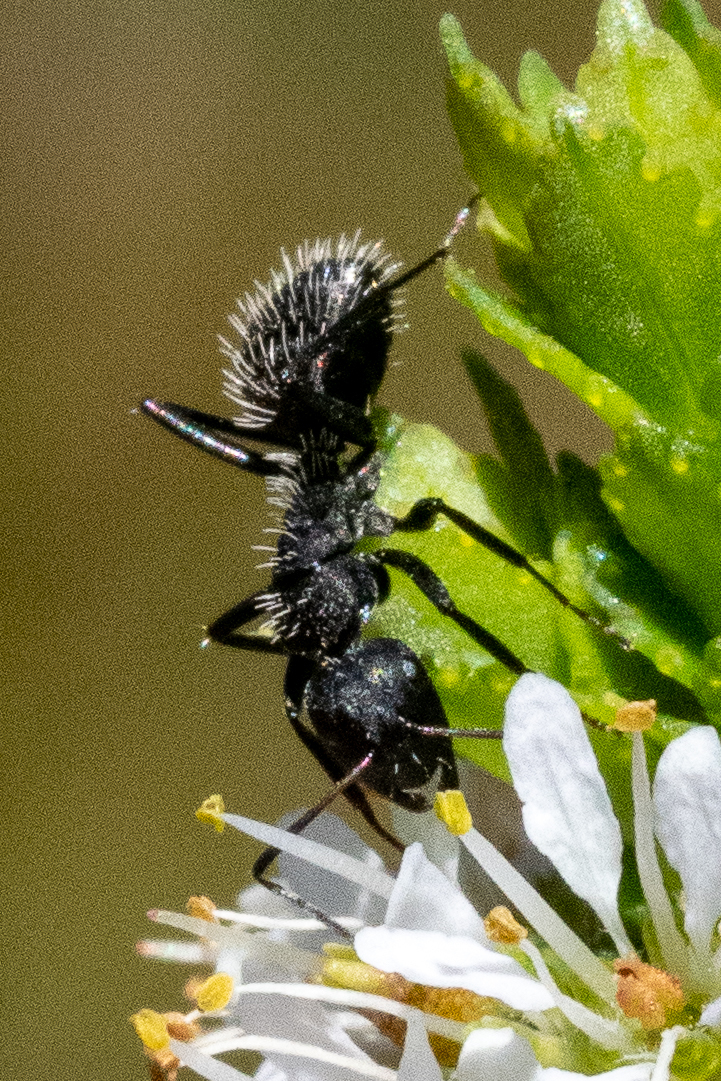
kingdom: Animalia
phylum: Arthropoda
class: Insecta
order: Hymenoptera
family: Formicidae
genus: Camponotus
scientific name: Camponotus niveosetosus
